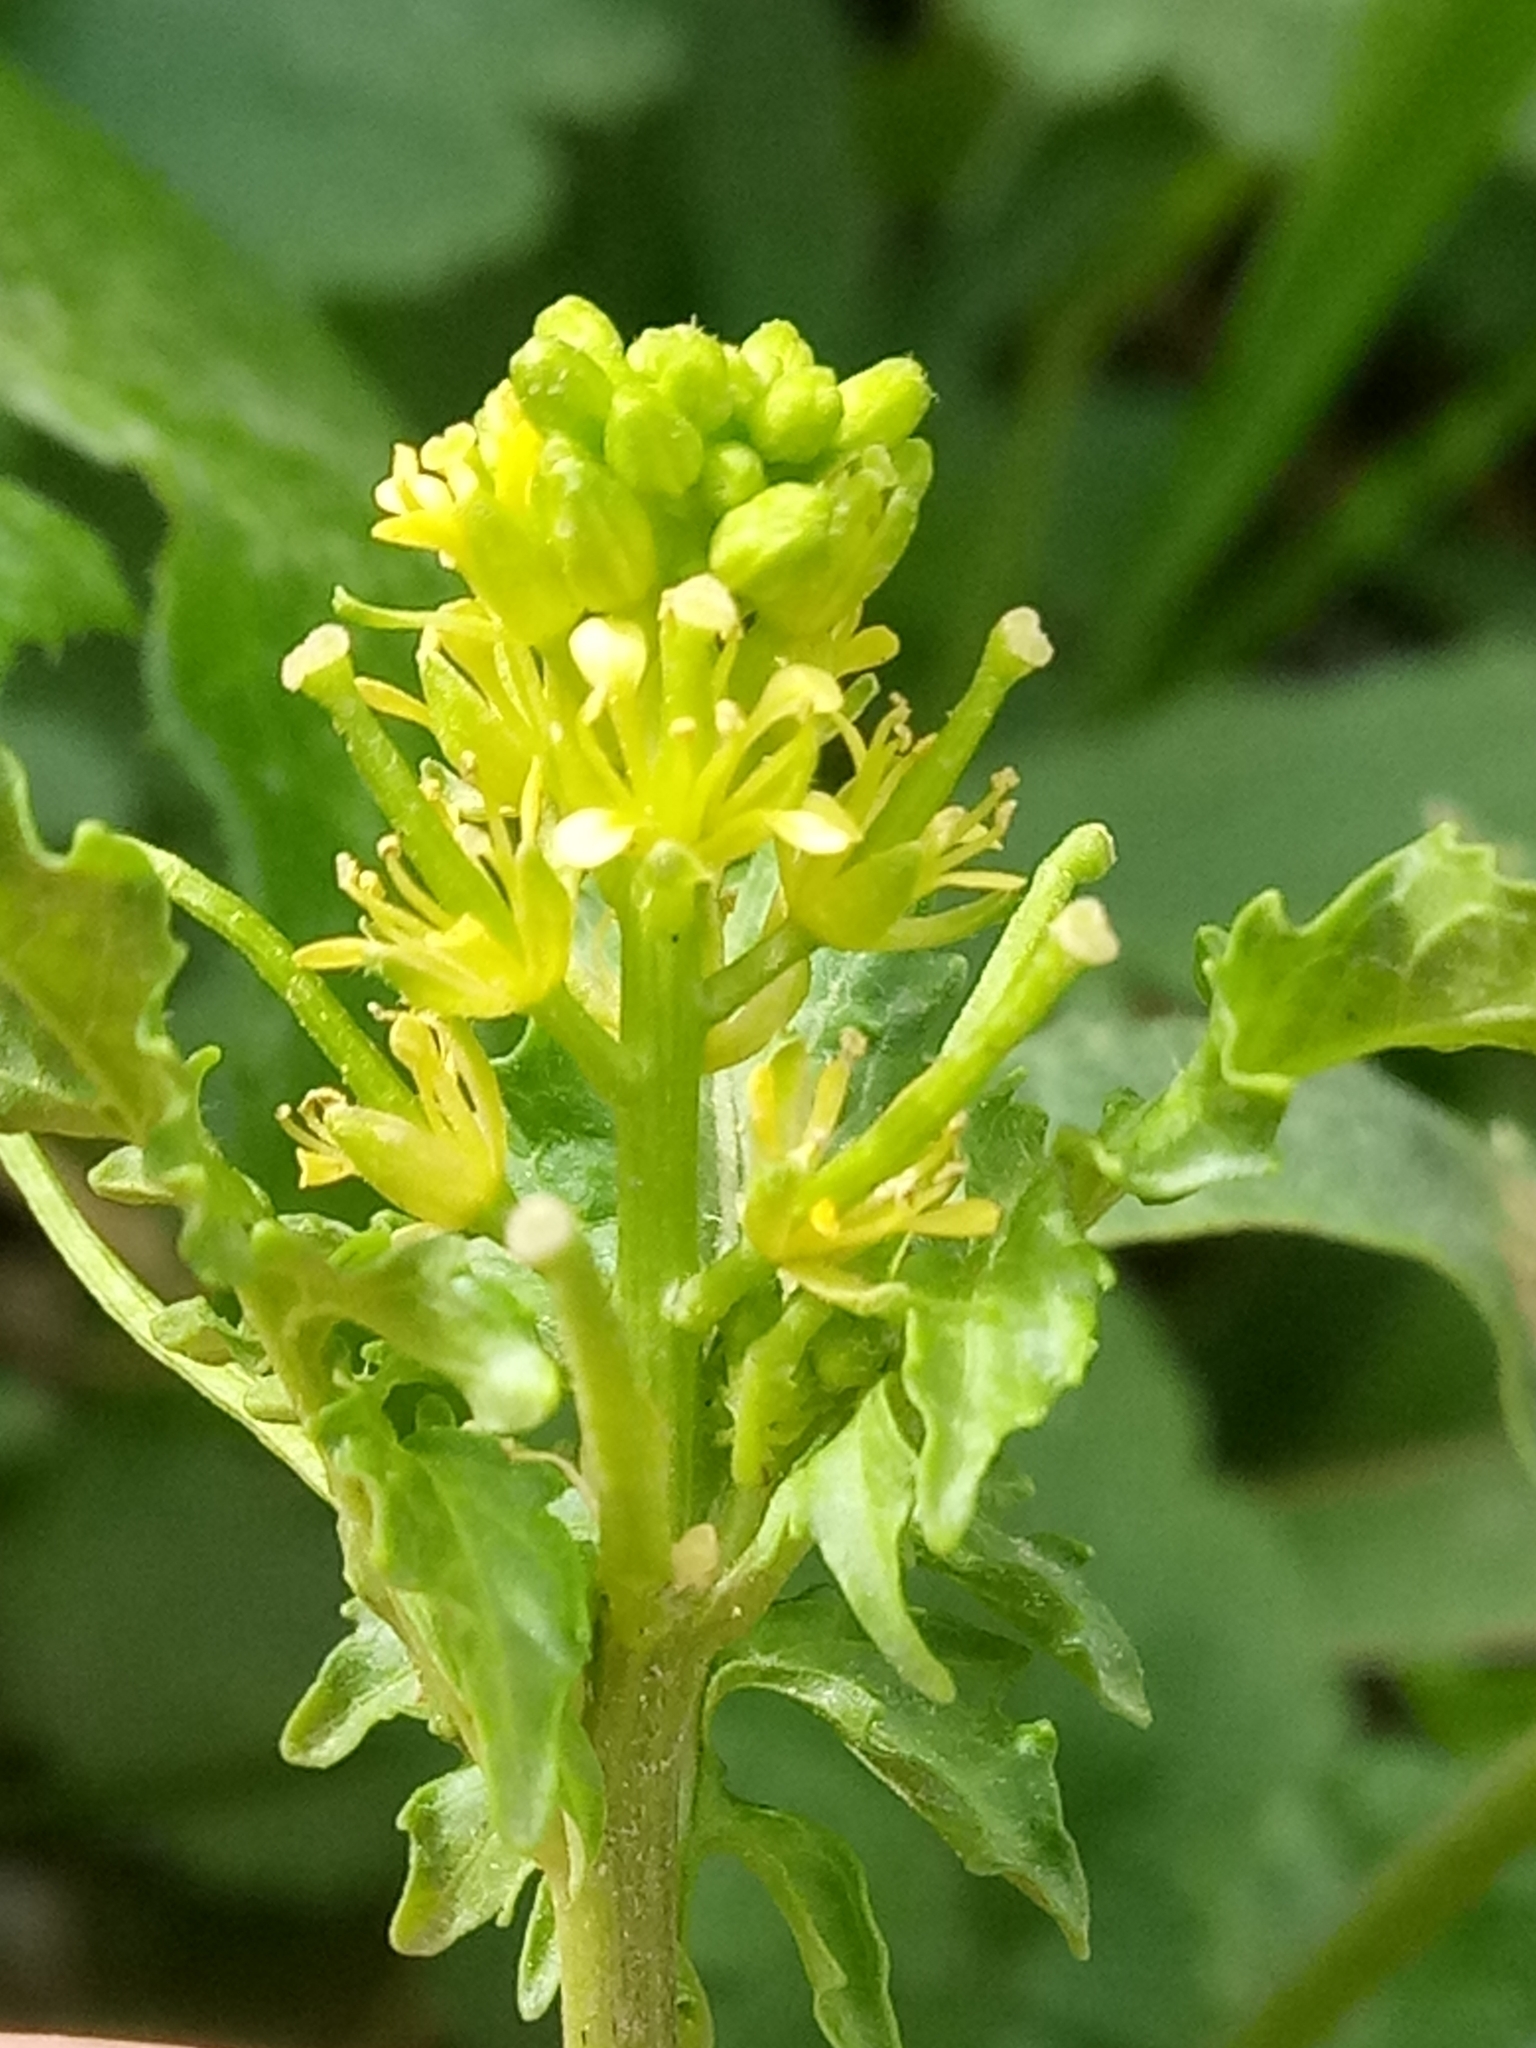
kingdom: Plantae
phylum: Tracheophyta
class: Magnoliopsida
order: Brassicales
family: Brassicaceae
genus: Sisymbrium
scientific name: Sisymbrium erysimoides
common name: French rocket
